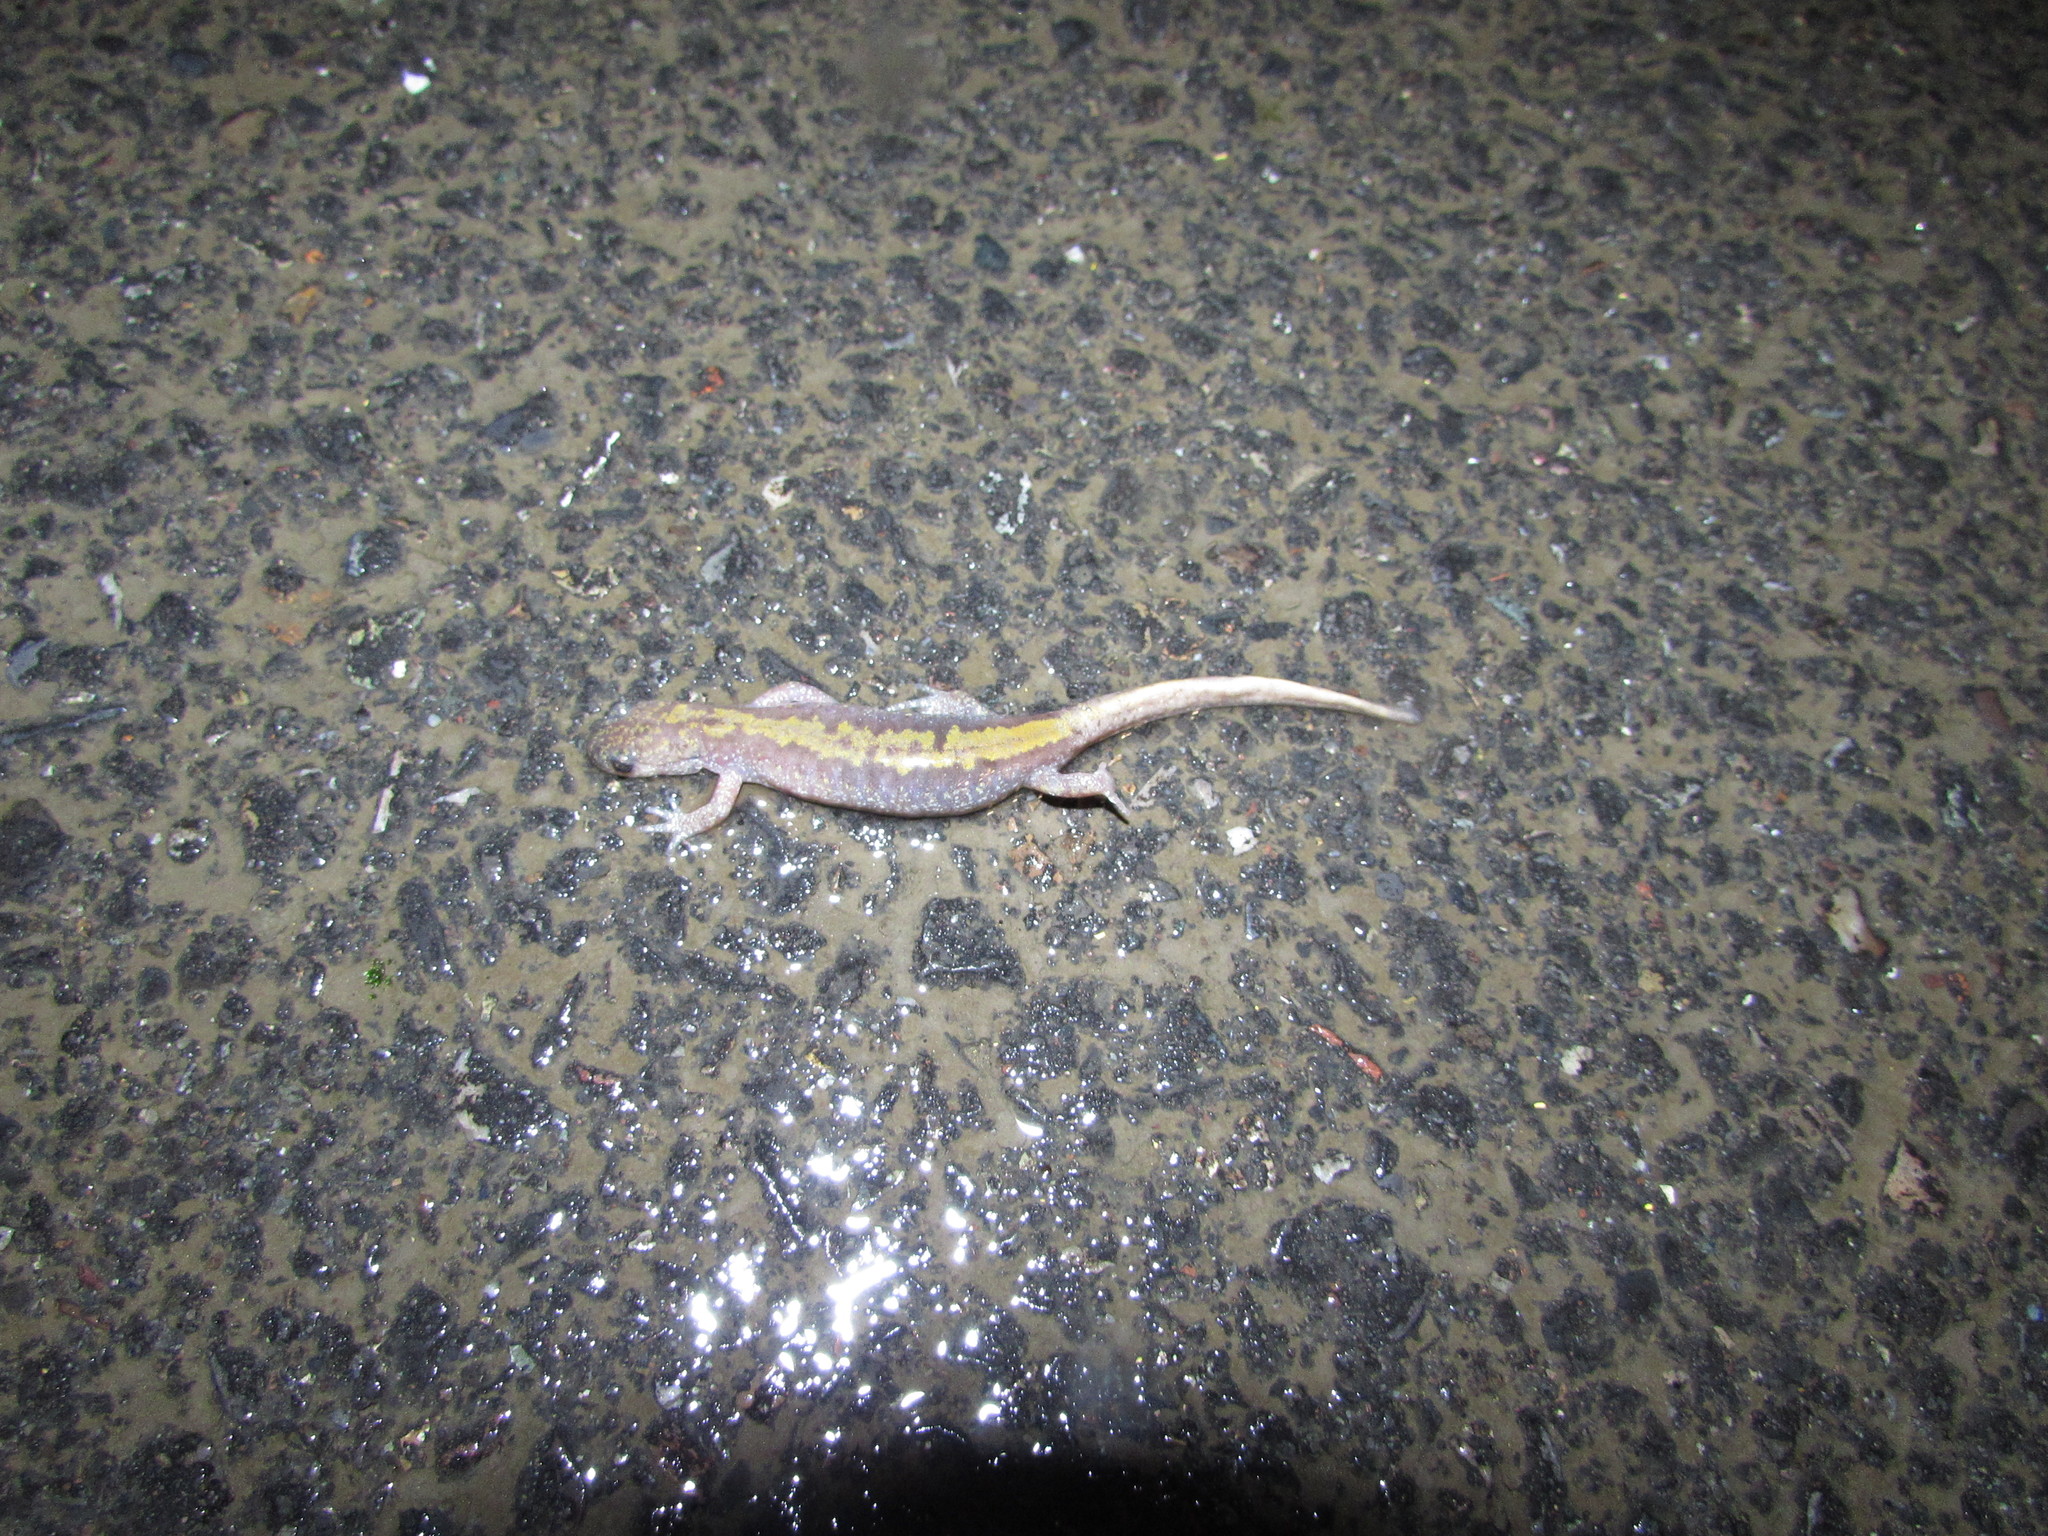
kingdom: Animalia
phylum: Chordata
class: Amphibia
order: Caudata
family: Ambystomatidae
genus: Ambystoma
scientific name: Ambystoma macrodactylum
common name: Long-toed salamander
